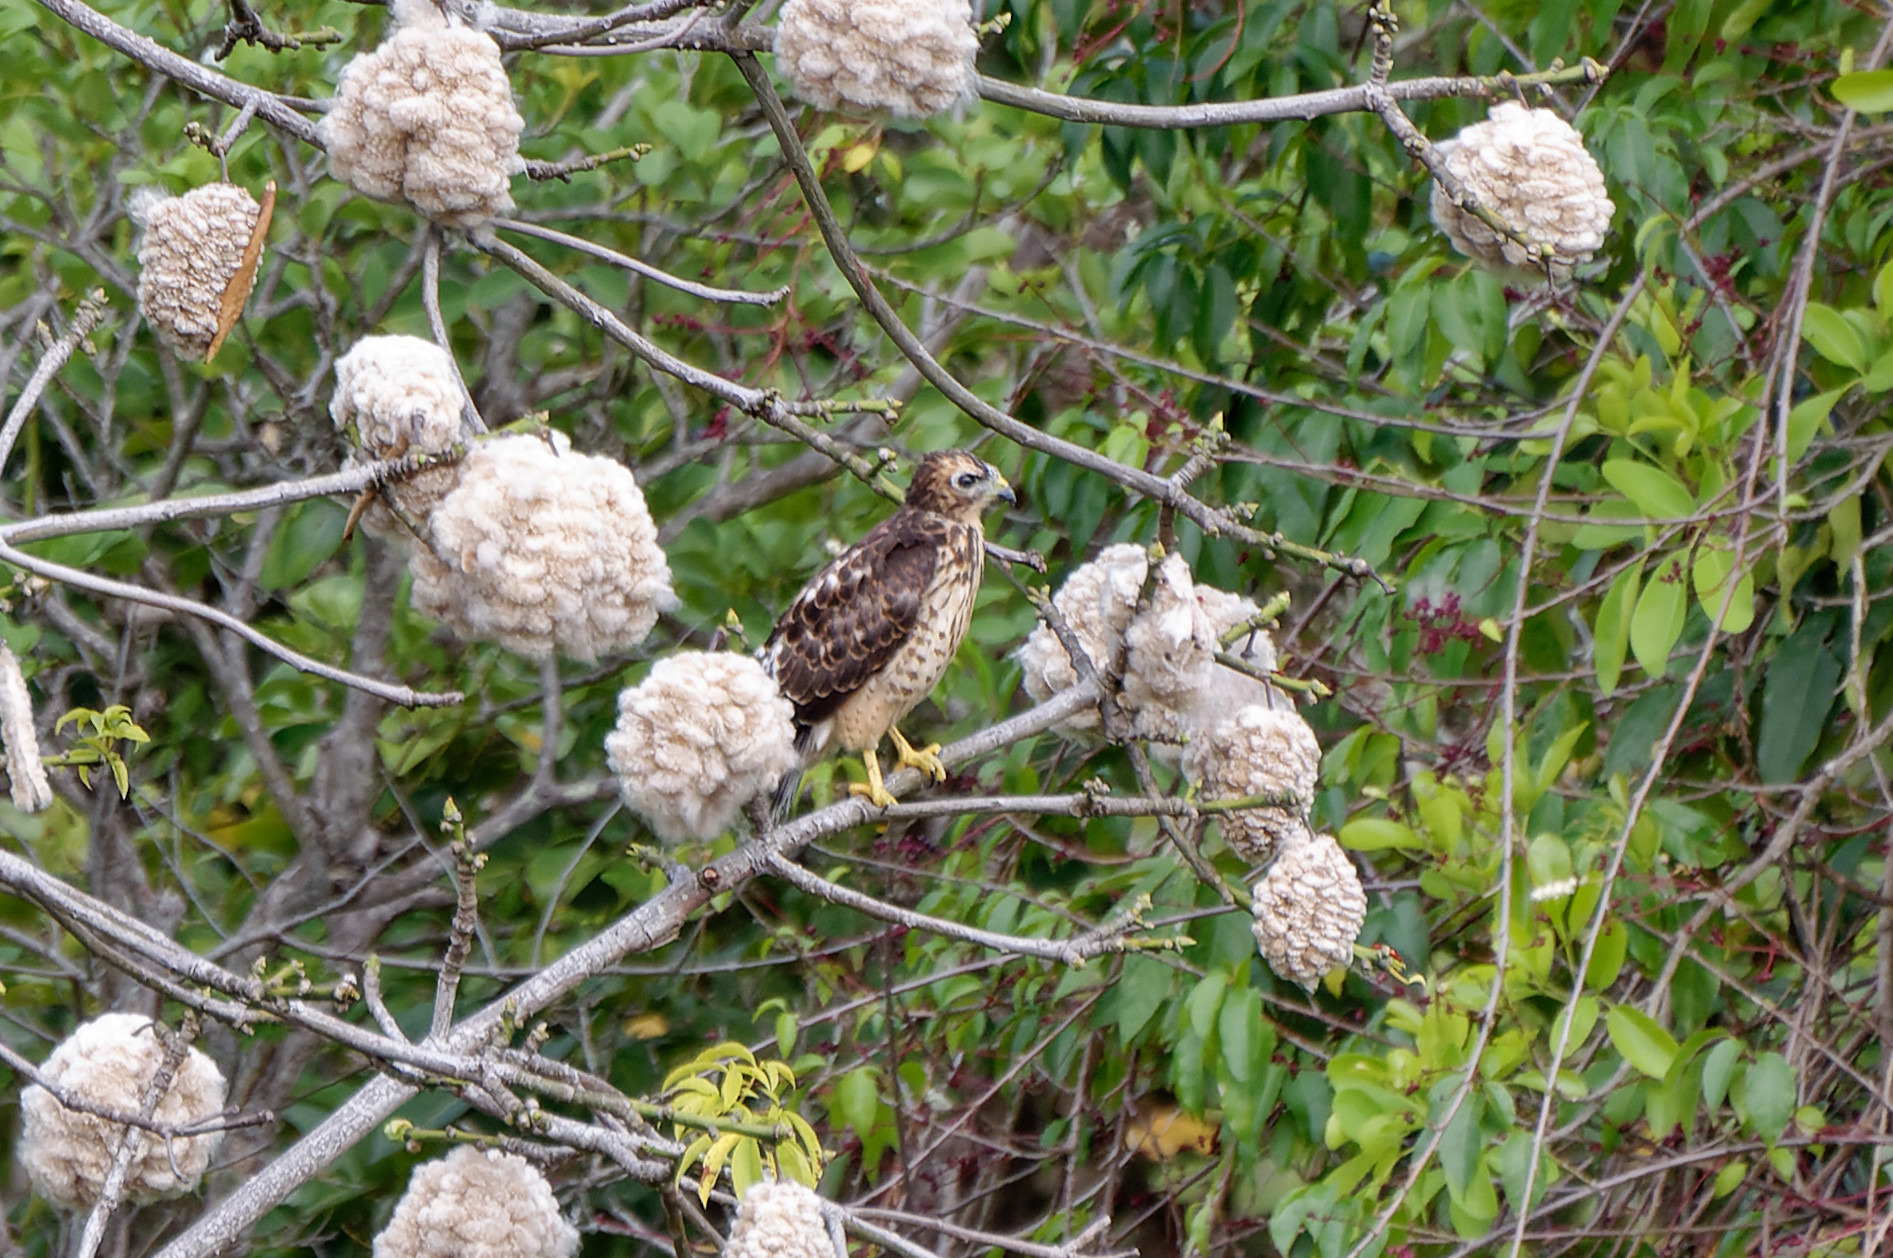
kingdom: Animalia
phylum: Chordata
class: Aves
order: Accipitriformes
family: Accipitridae
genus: Buteo
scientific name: Buteo platypterus
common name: Broad-winged hawk
